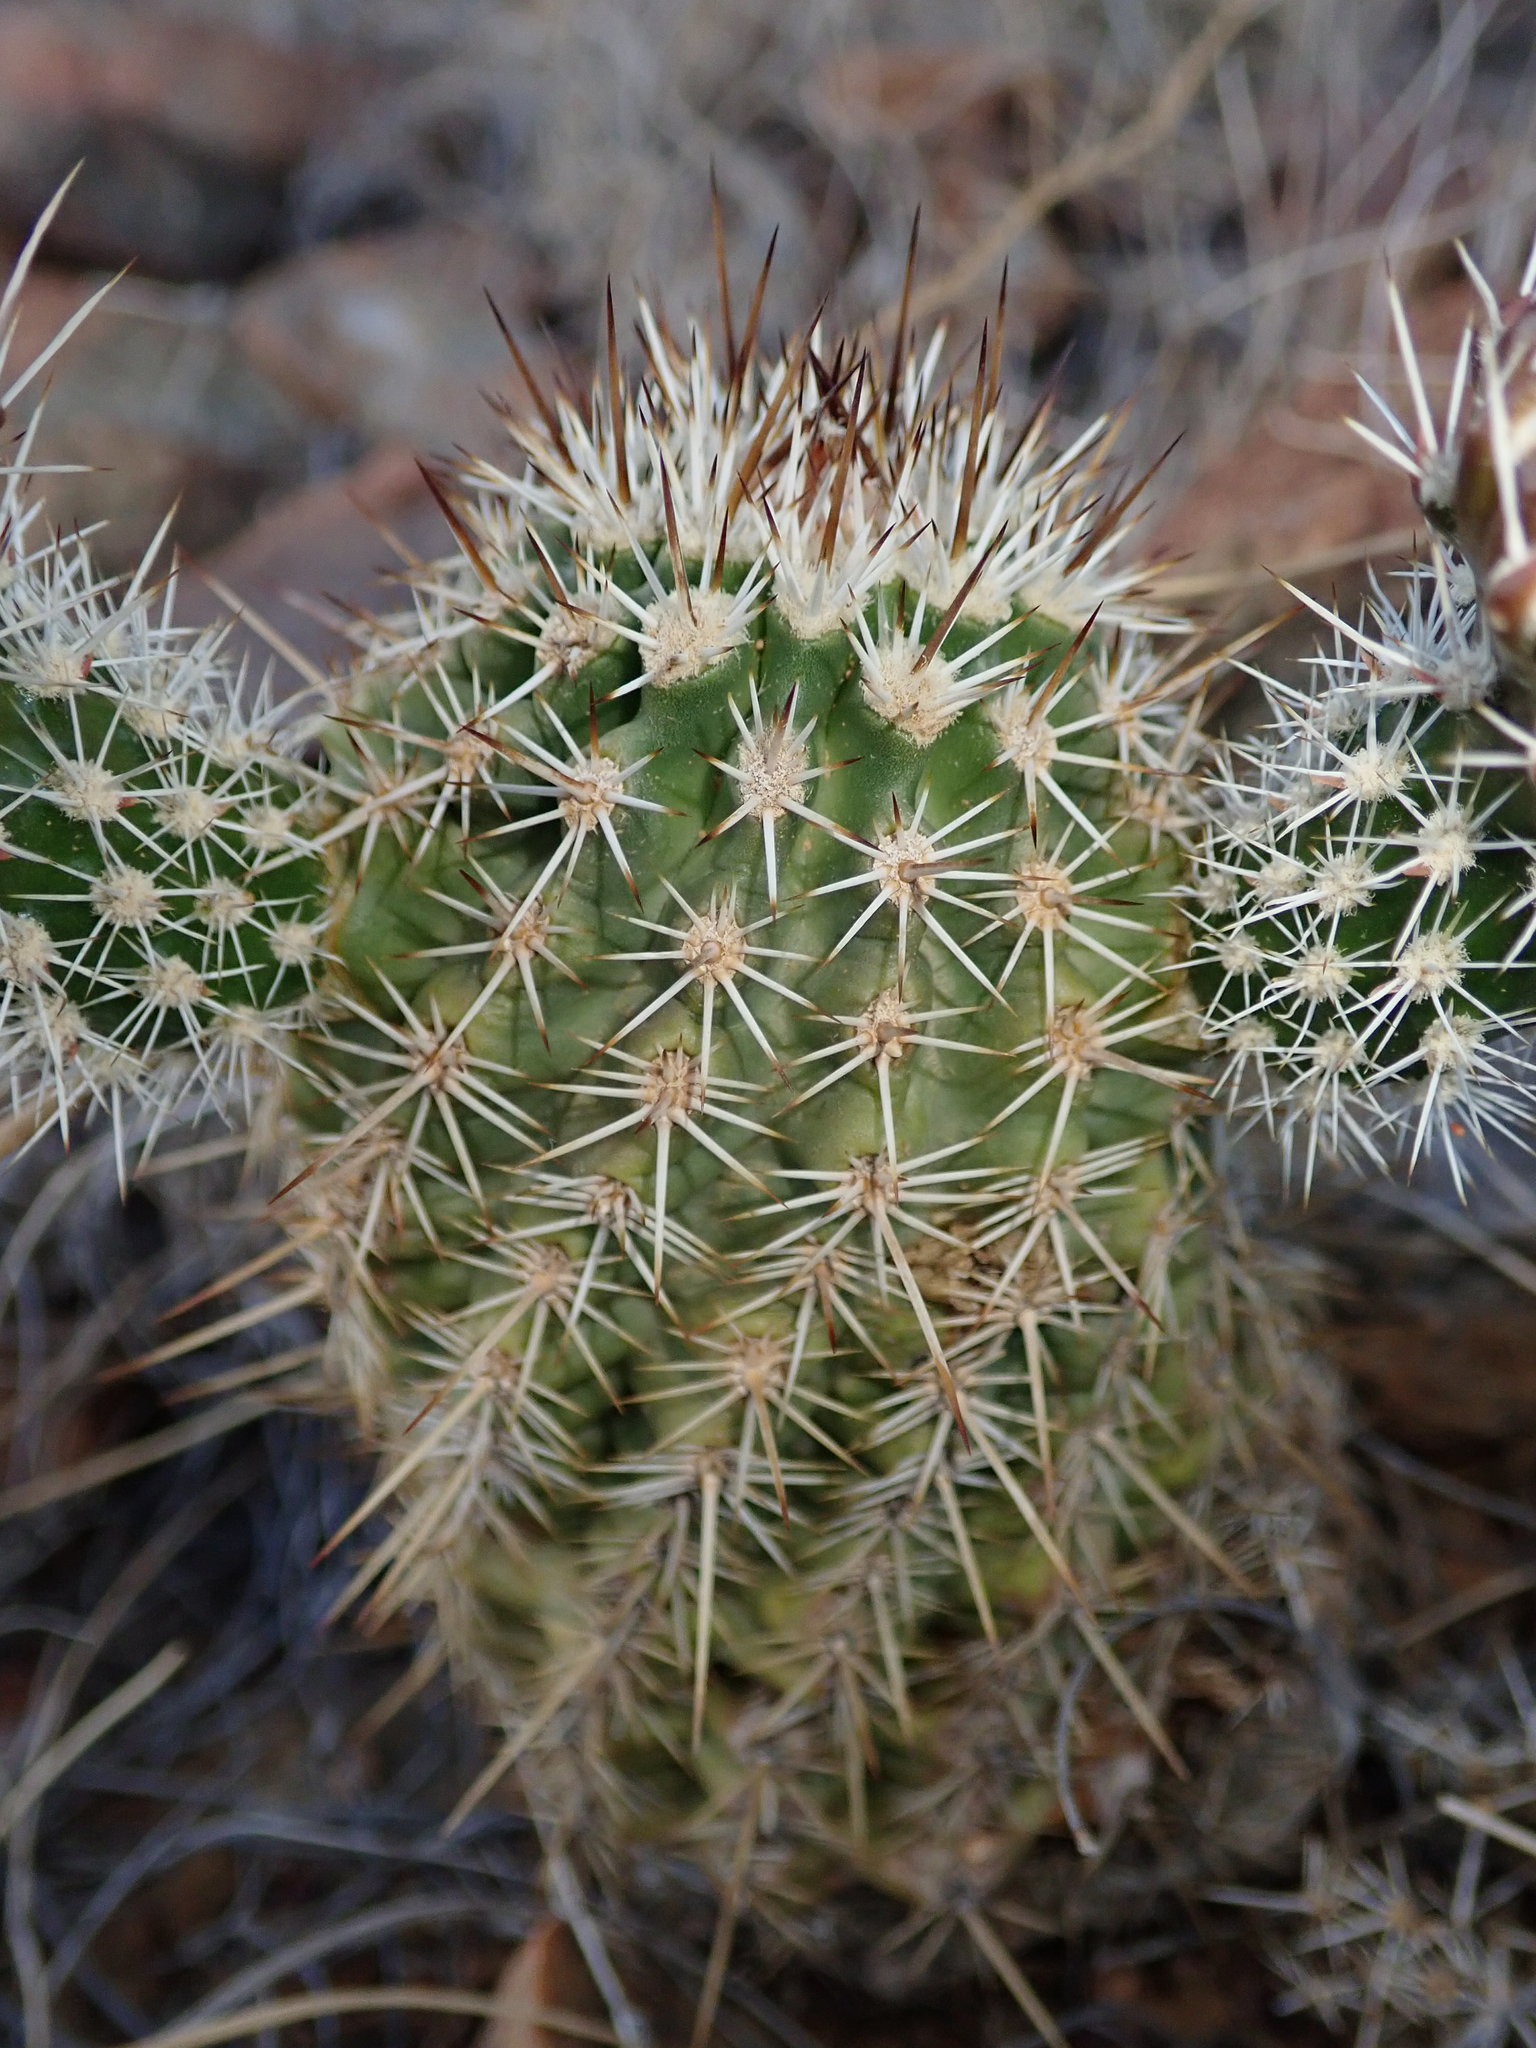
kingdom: Plantae
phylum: Tracheophyta
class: Magnoliopsida
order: Caryophyllales
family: Cactaceae
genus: Echinocereus
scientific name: Echinocereus fasciculatus
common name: Bundle hedgehog
